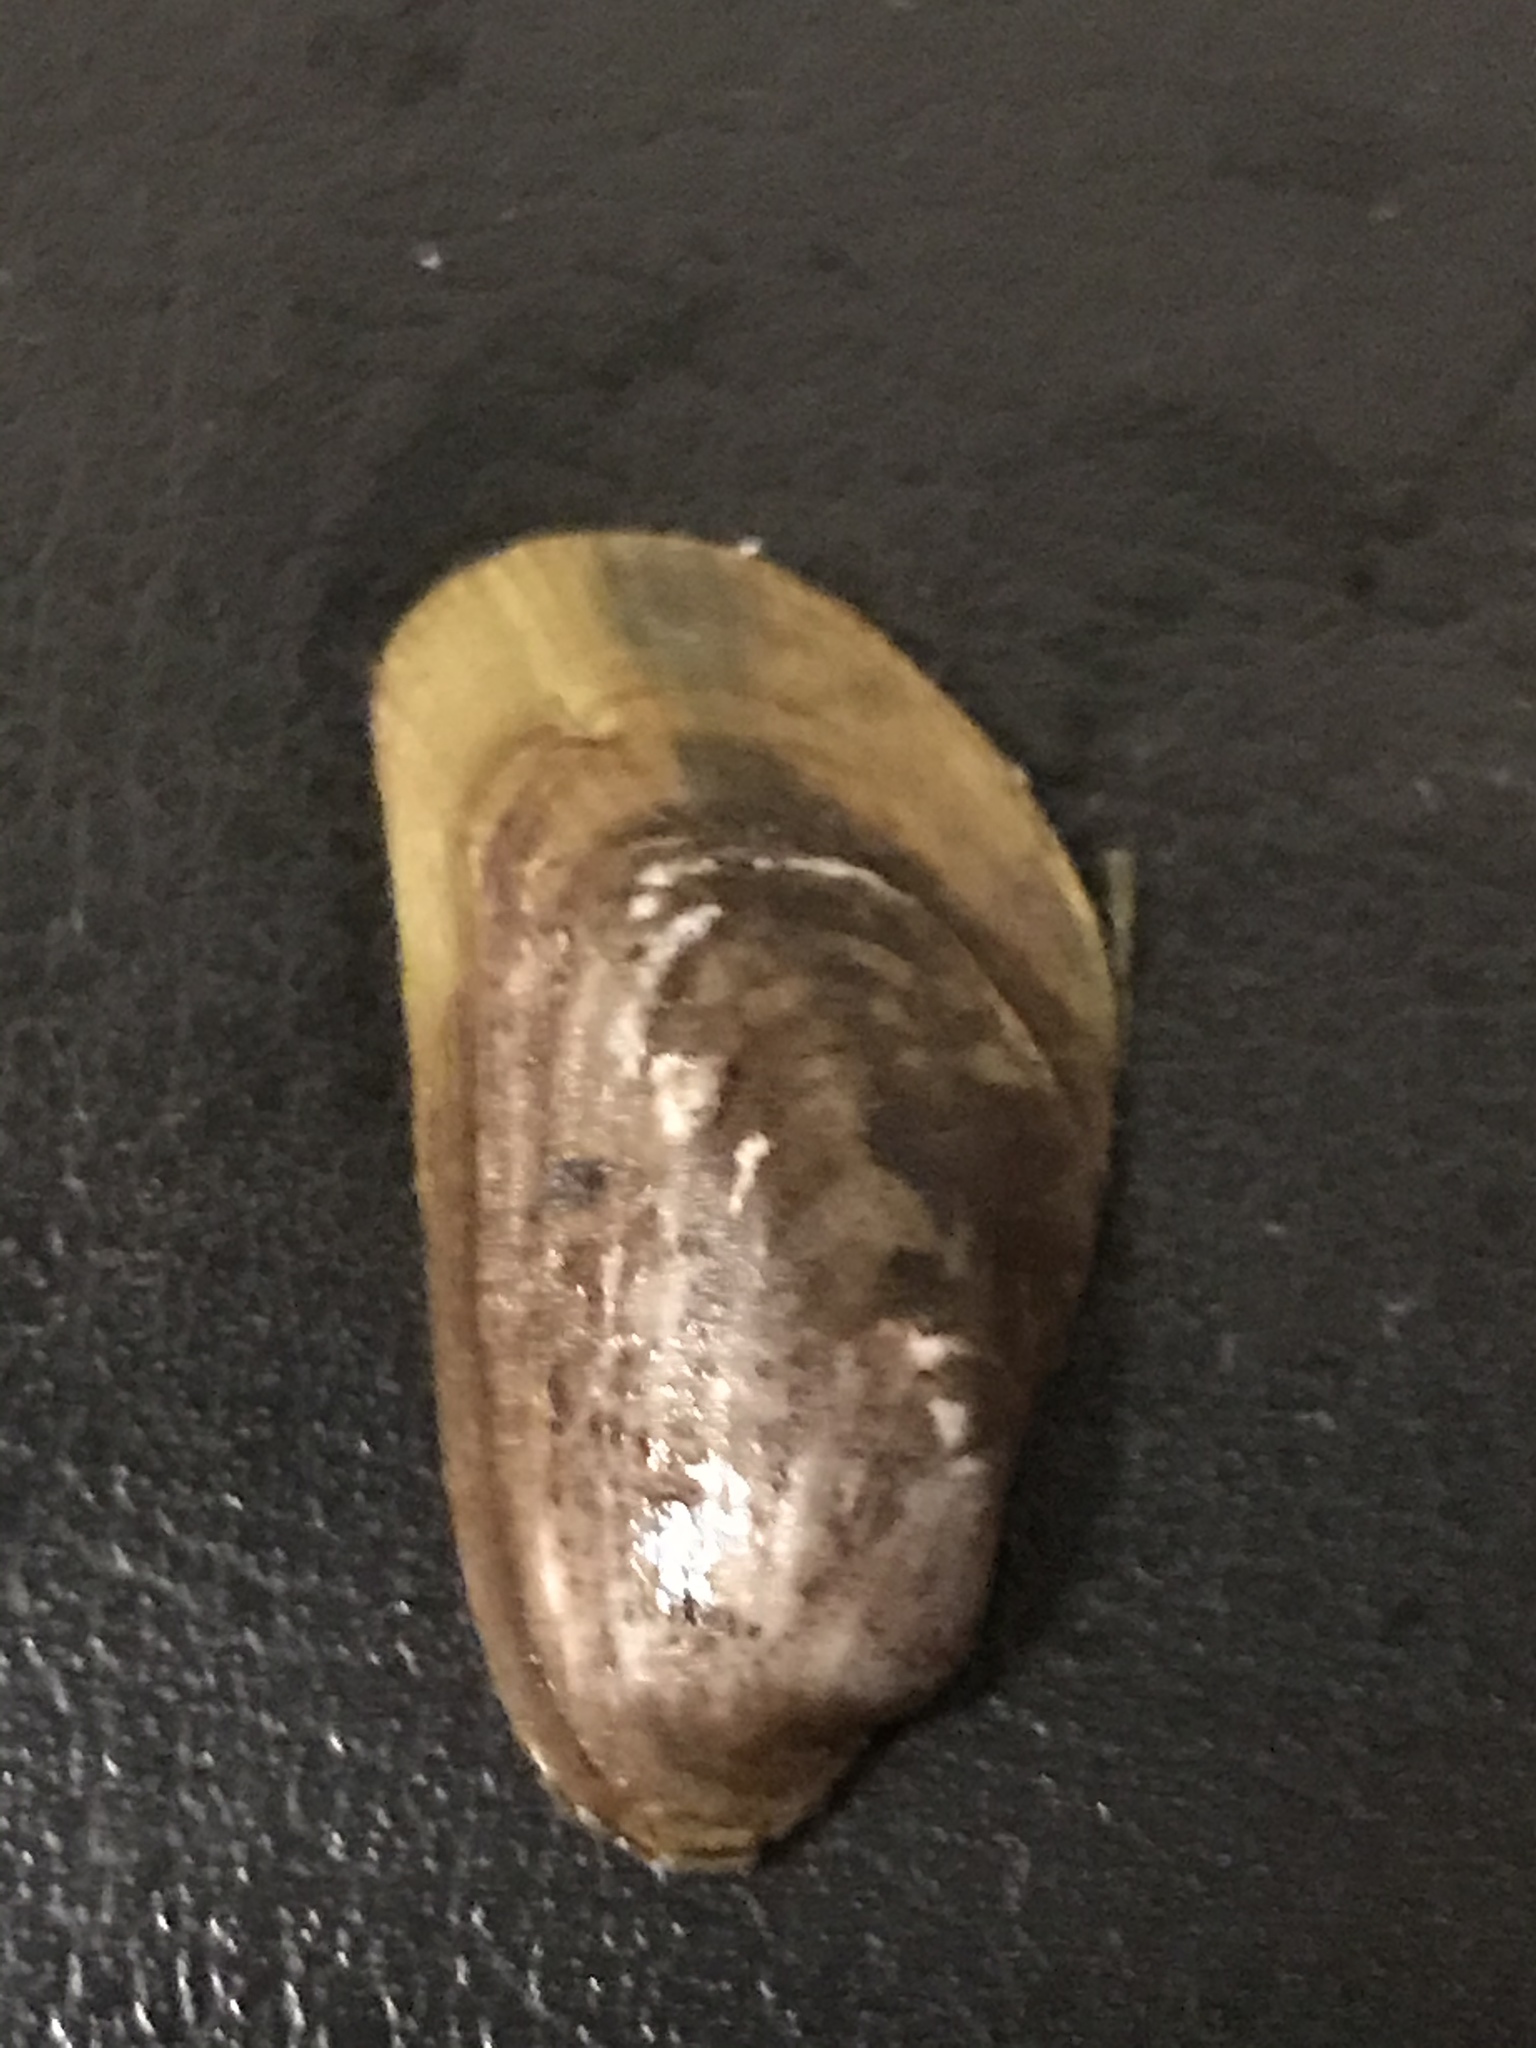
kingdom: Animalia
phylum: Mollusca
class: Bivalvia
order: Mytilida
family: Mytilidae
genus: Arcuatula
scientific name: Arcuatula senhousia
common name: Asian mussel
